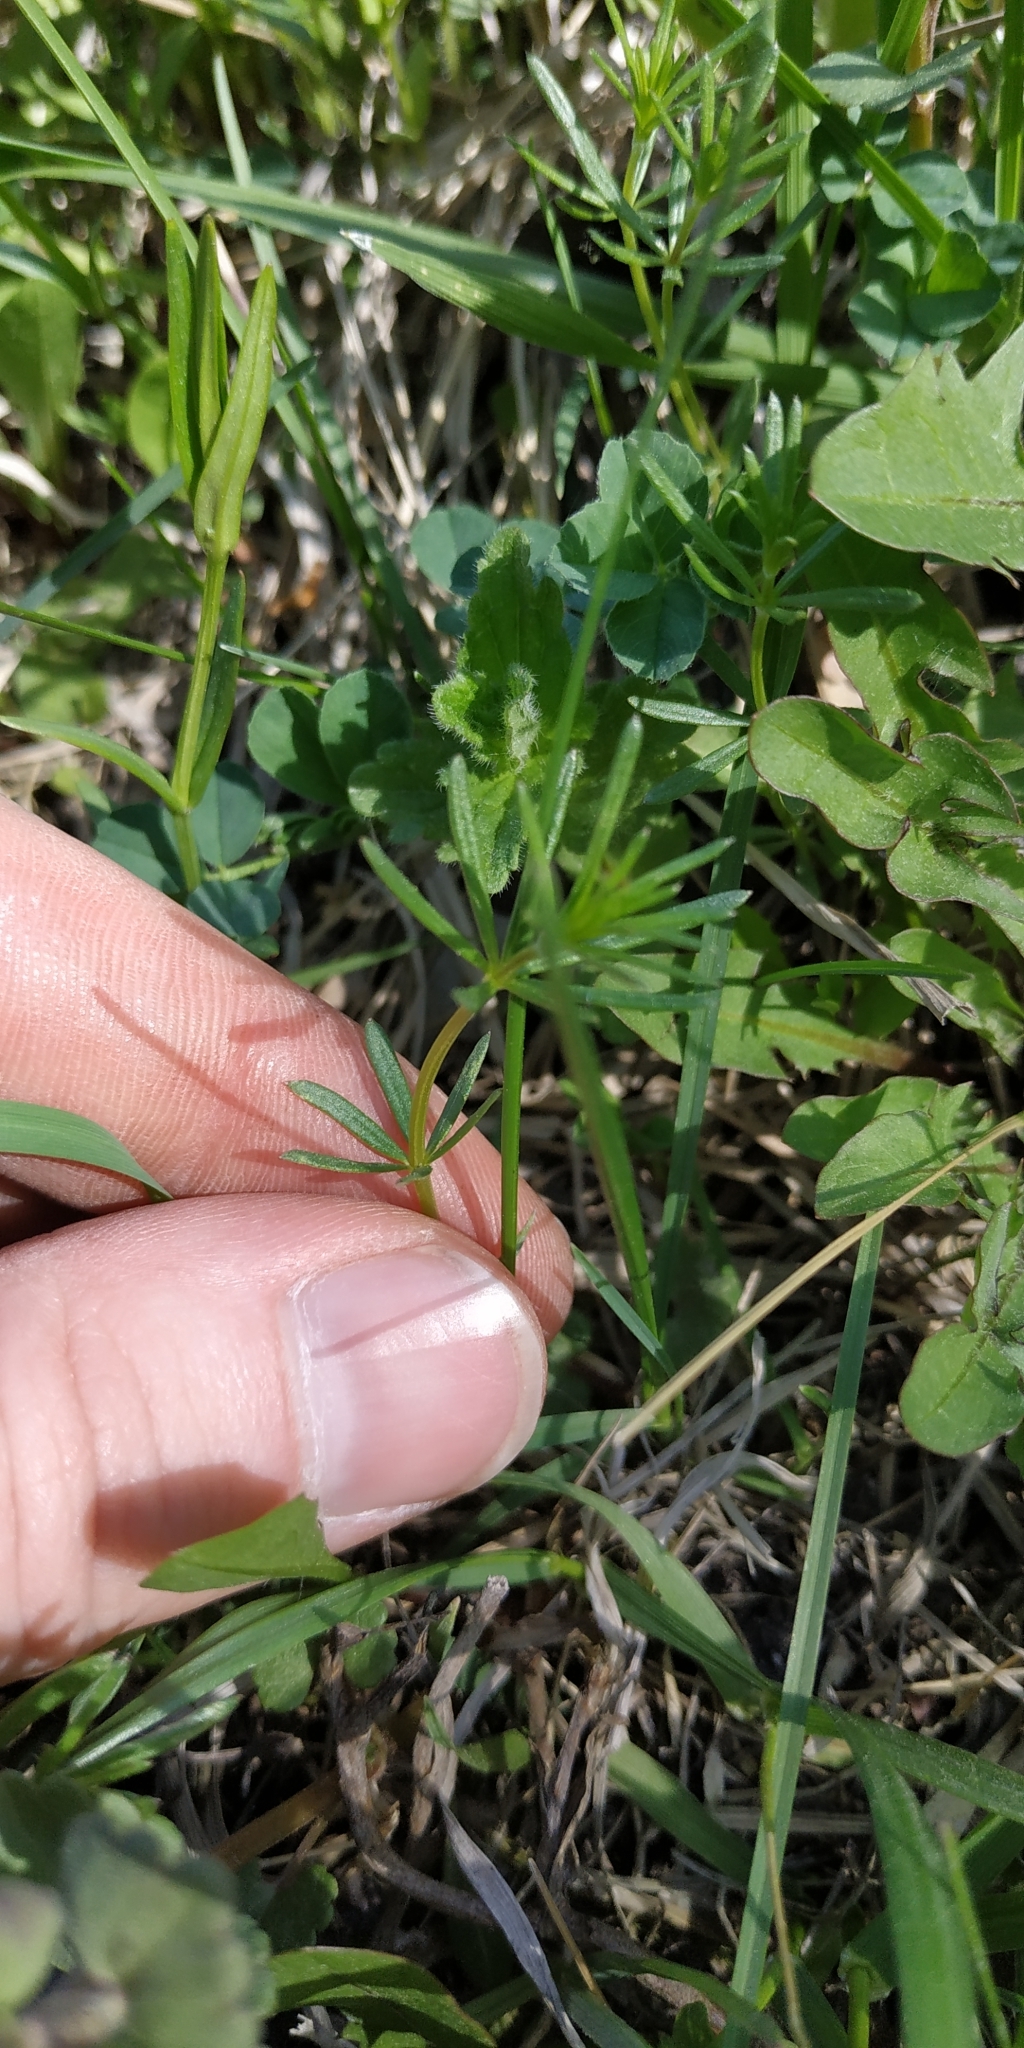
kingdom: Plantae
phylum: Tracheophyta
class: Magnoliopsida
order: Gentianales
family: Rubiaceae
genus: Galium
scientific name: Galium mollugo
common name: Hedge bedstraw
